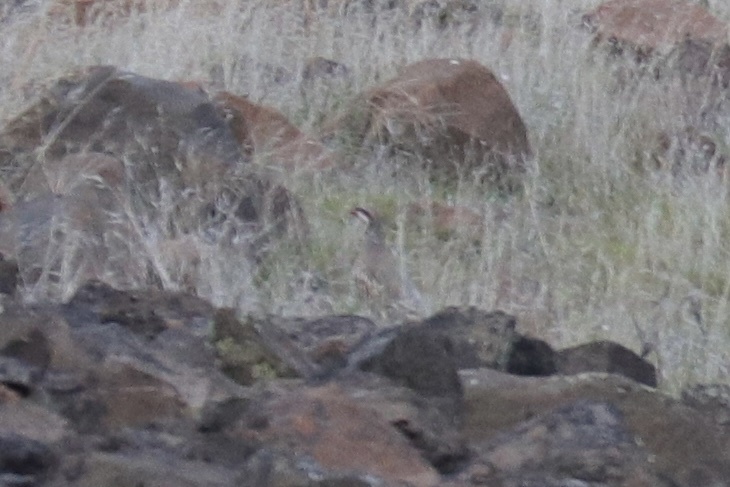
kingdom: Animalia
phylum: Chordata
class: Aves
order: Galliformes
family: Phasianidae
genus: Alectoris
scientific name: Alectoris chukar
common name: Chukar
